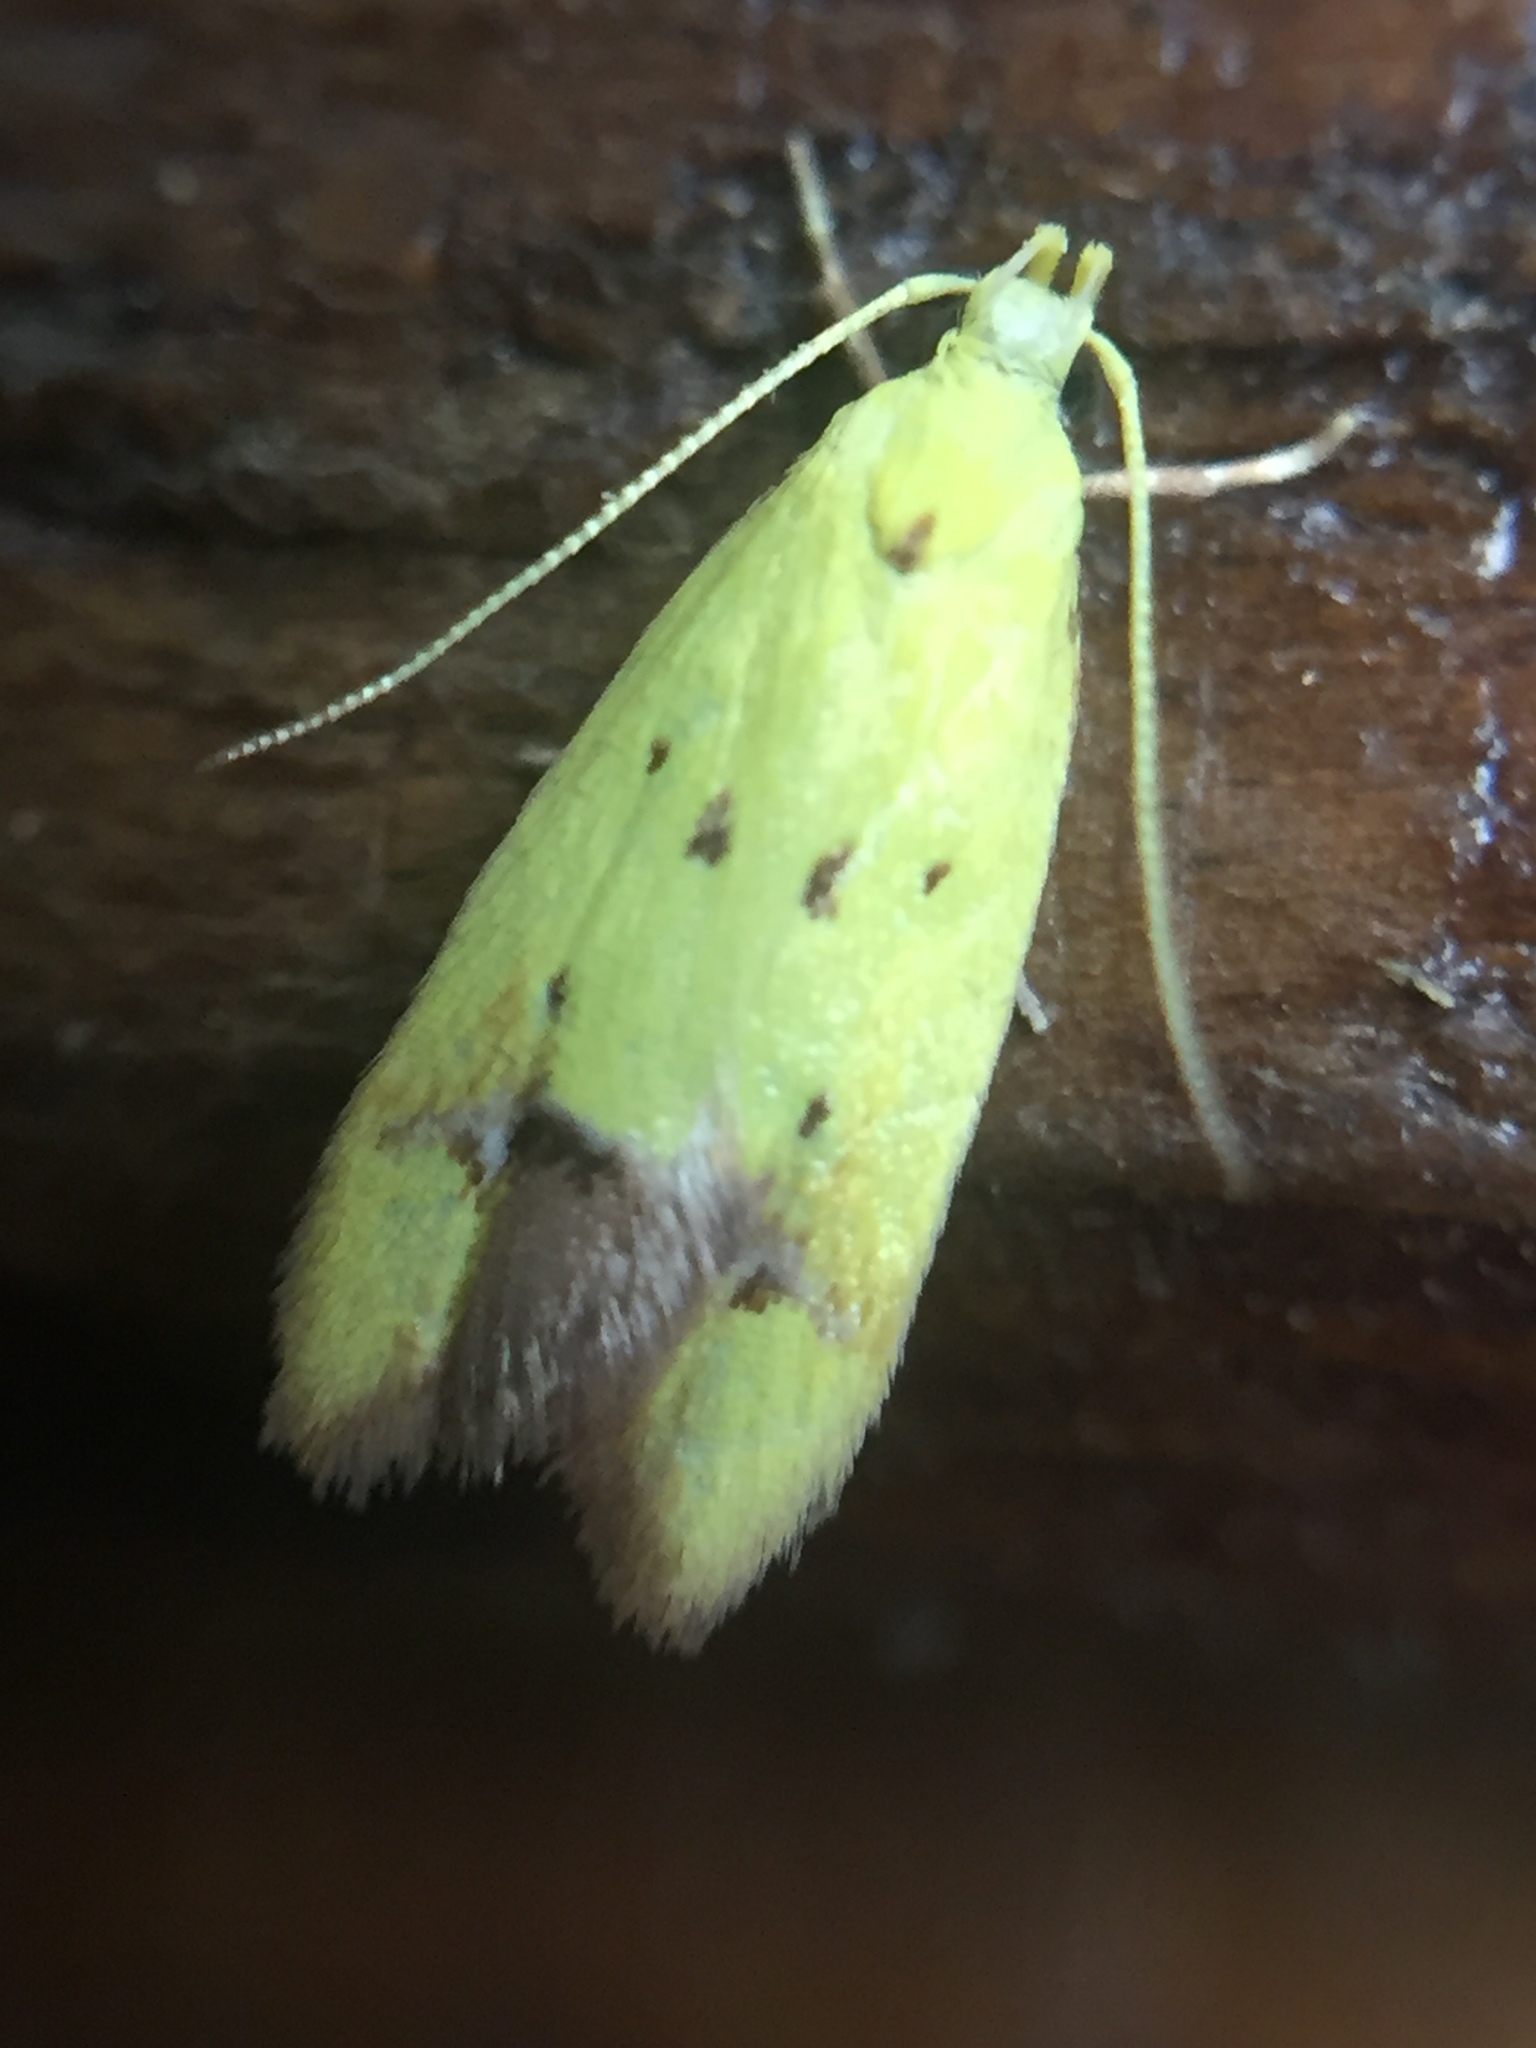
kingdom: Animalia
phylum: Arthropoda
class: Insecta
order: Lepidoptera
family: Oecophoridae
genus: Gymnobathra
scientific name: Gymnobathra flavidella
